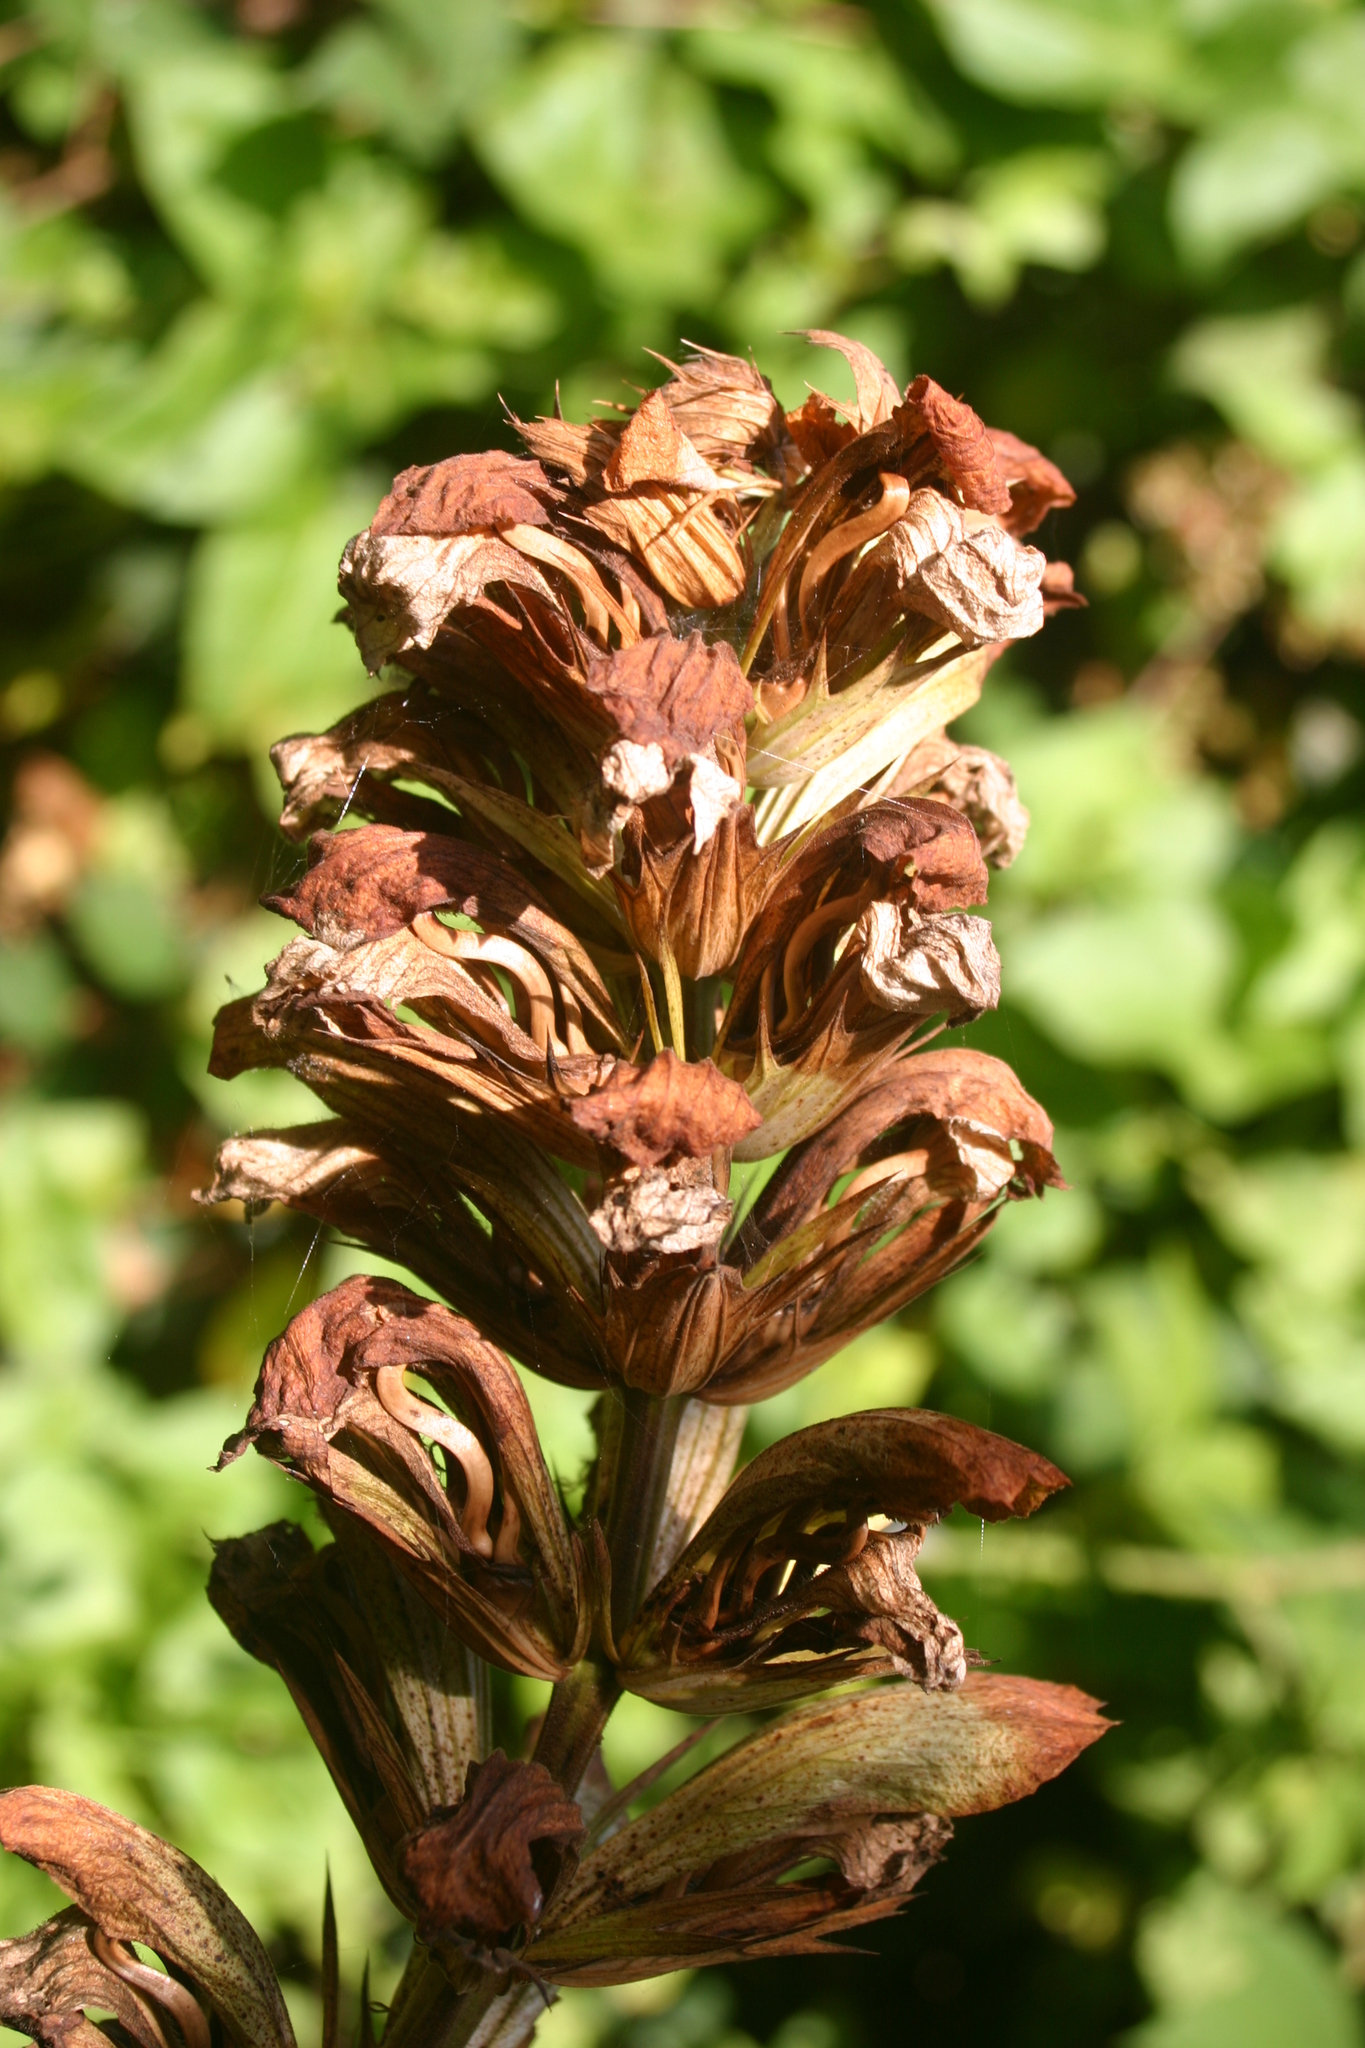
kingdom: Plantae
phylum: Tracheophyta
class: Magnoliopsida
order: Lamiales
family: Acanthaceae
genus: Acanthus
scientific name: Acanthus mollis
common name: Bear's-breech
